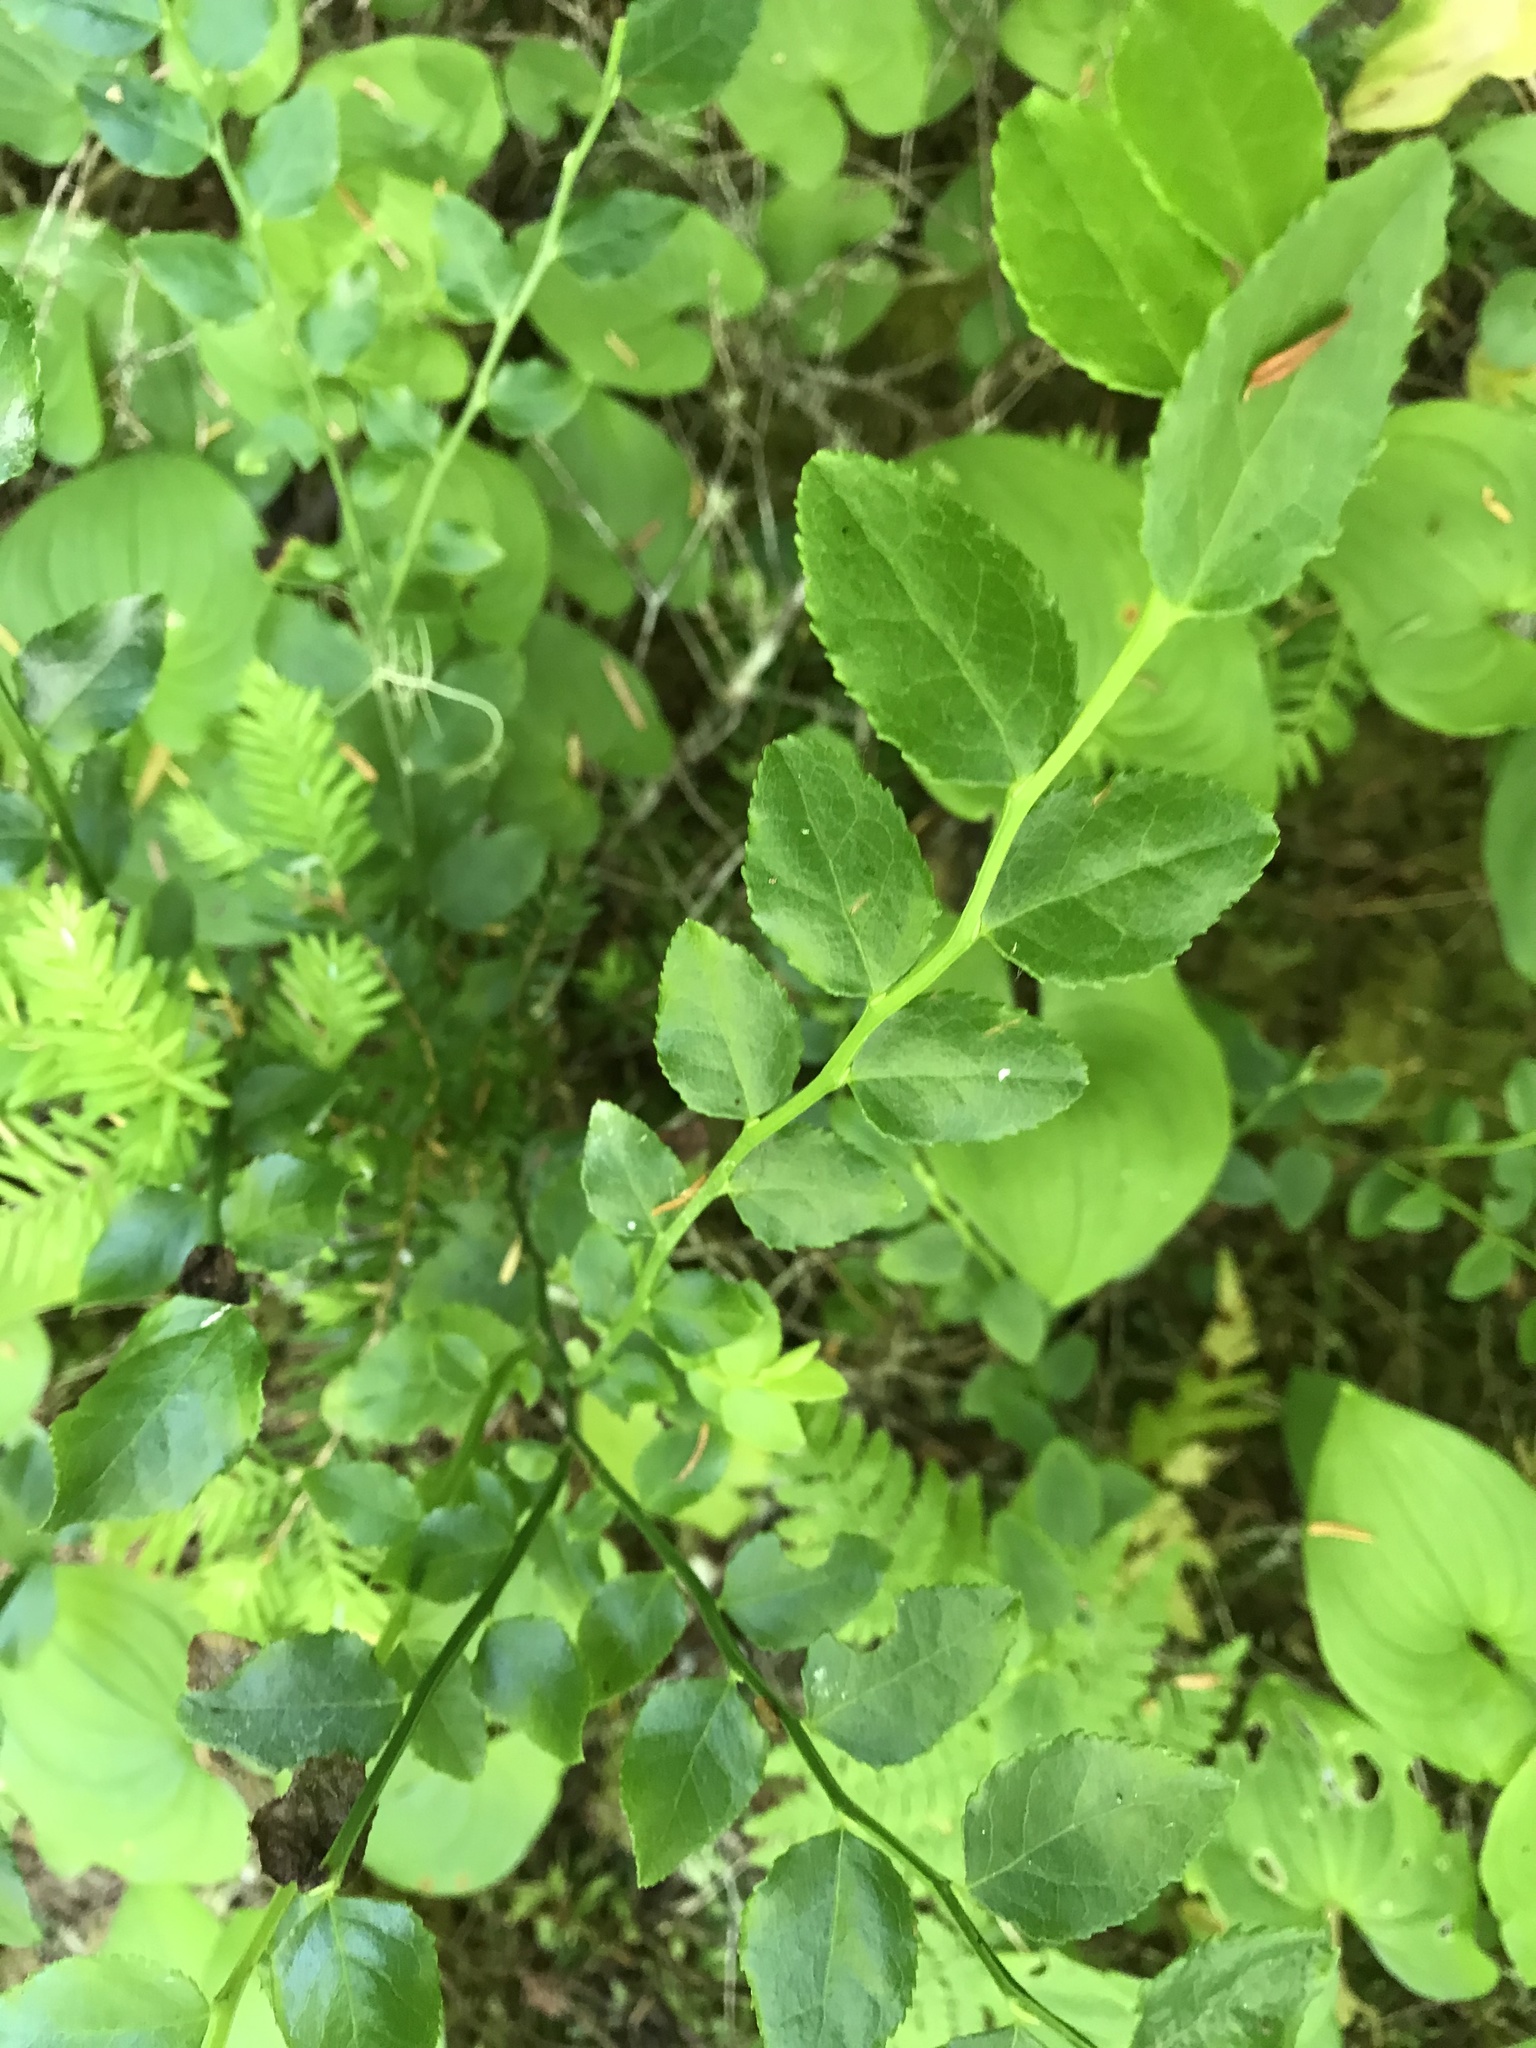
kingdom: Plantae
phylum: Tracheophyta
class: Magnoliopsida
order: Ericales
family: Ericaceae
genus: Vaccinium
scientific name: Vaccinium parvifolium
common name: Red-huckleberry
